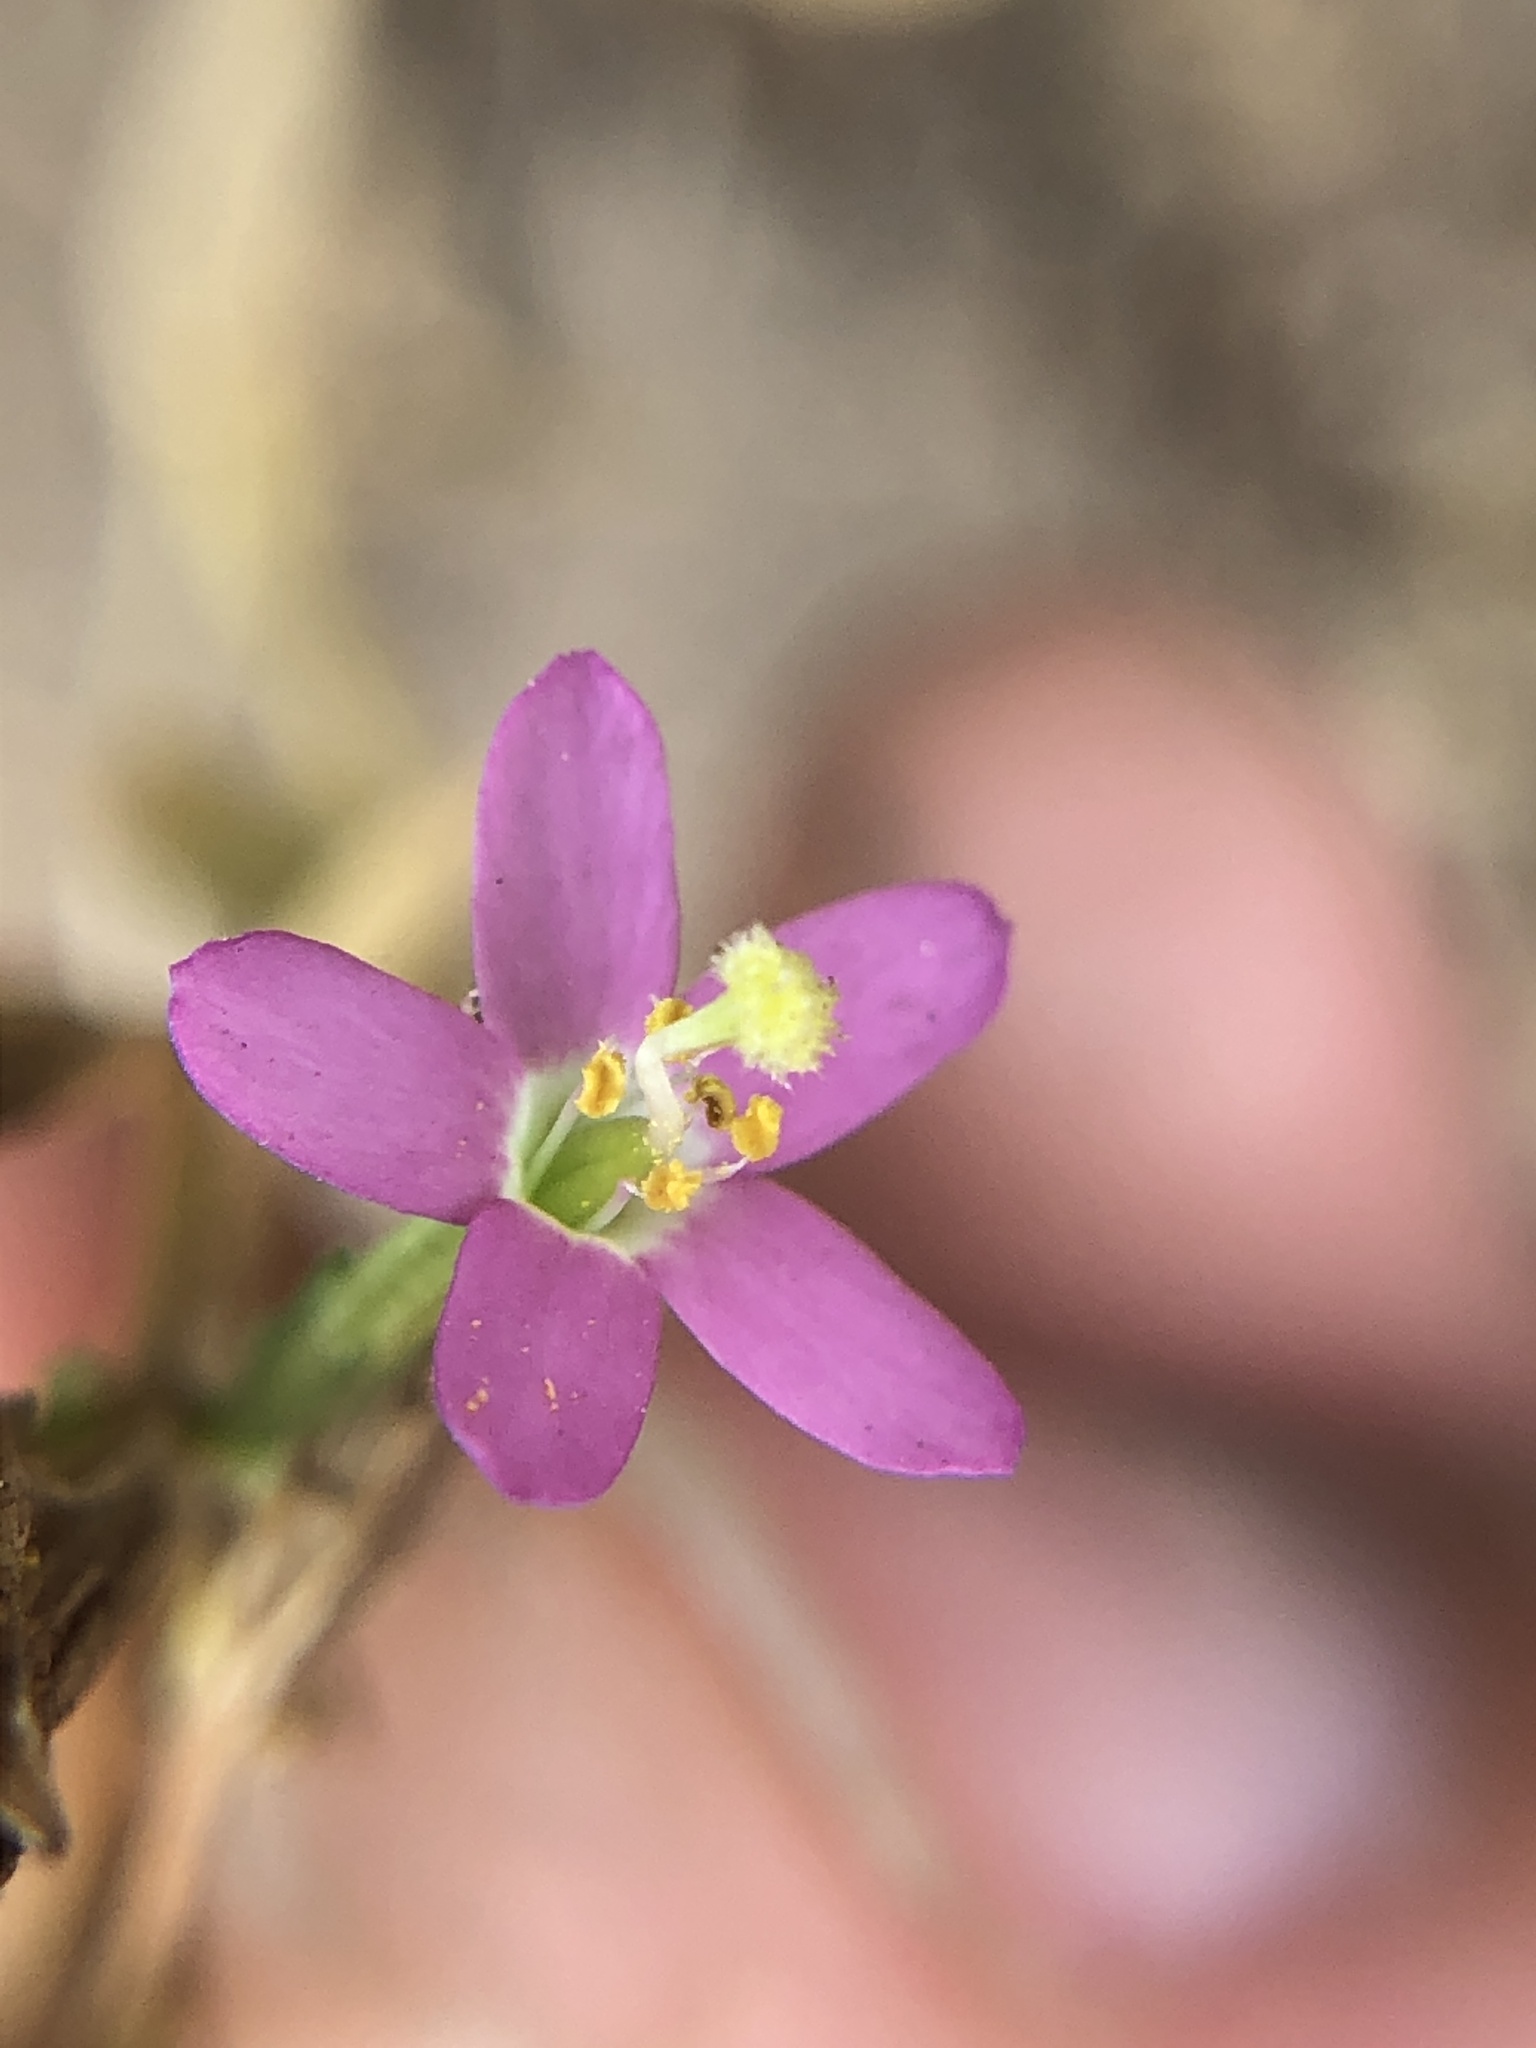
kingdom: Plantae
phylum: Tracheophyta
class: Magnoliopsida
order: Gentianales
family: Gentianaceae
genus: Zeltnera
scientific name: Zeltnera muhlenbergii
